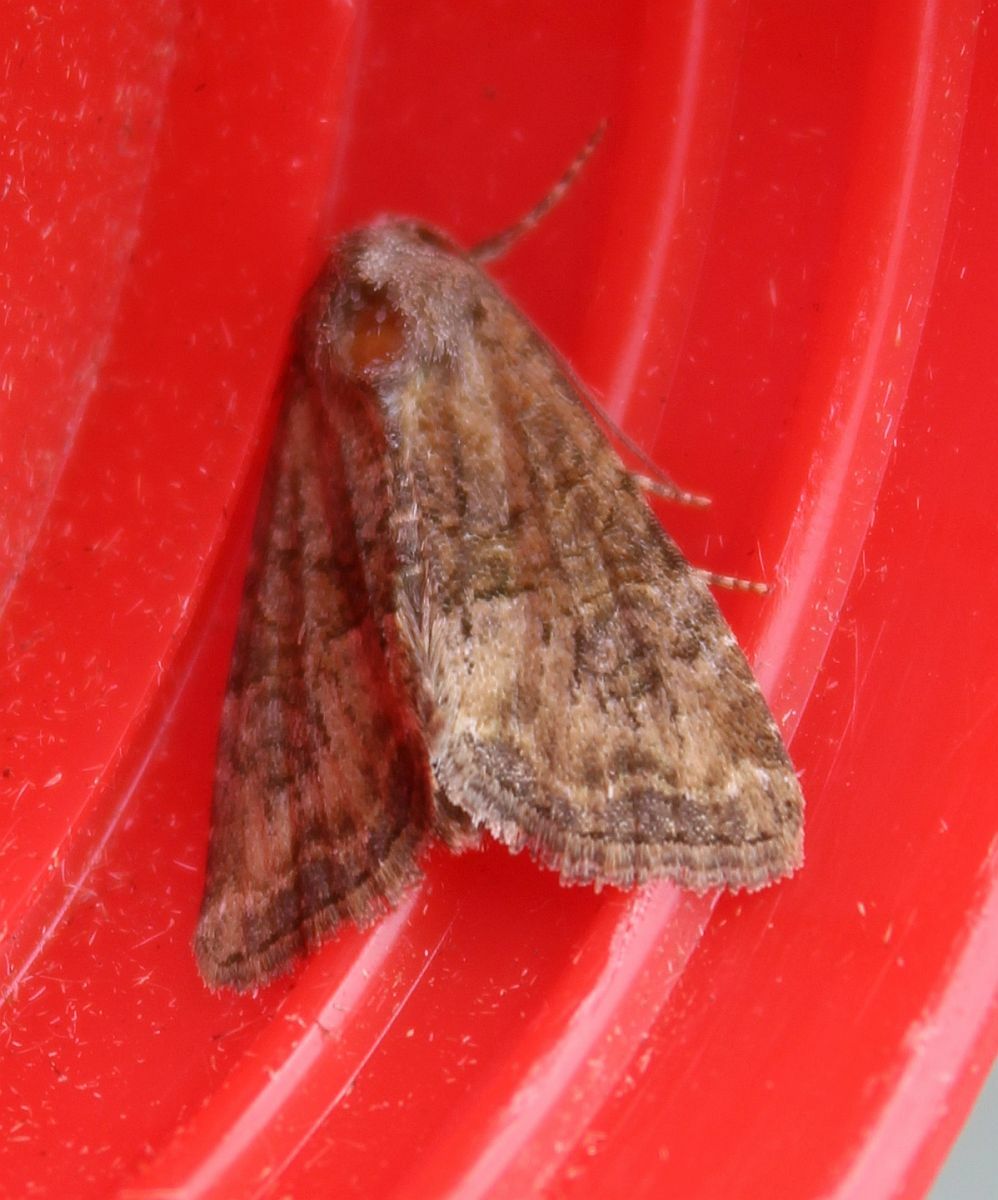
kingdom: Animalia
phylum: Arthropoda
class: Insecta
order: Lepidoptera
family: Noctuidae
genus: Mesoligia
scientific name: Mesoligia furuncula
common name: Cloaked minor
